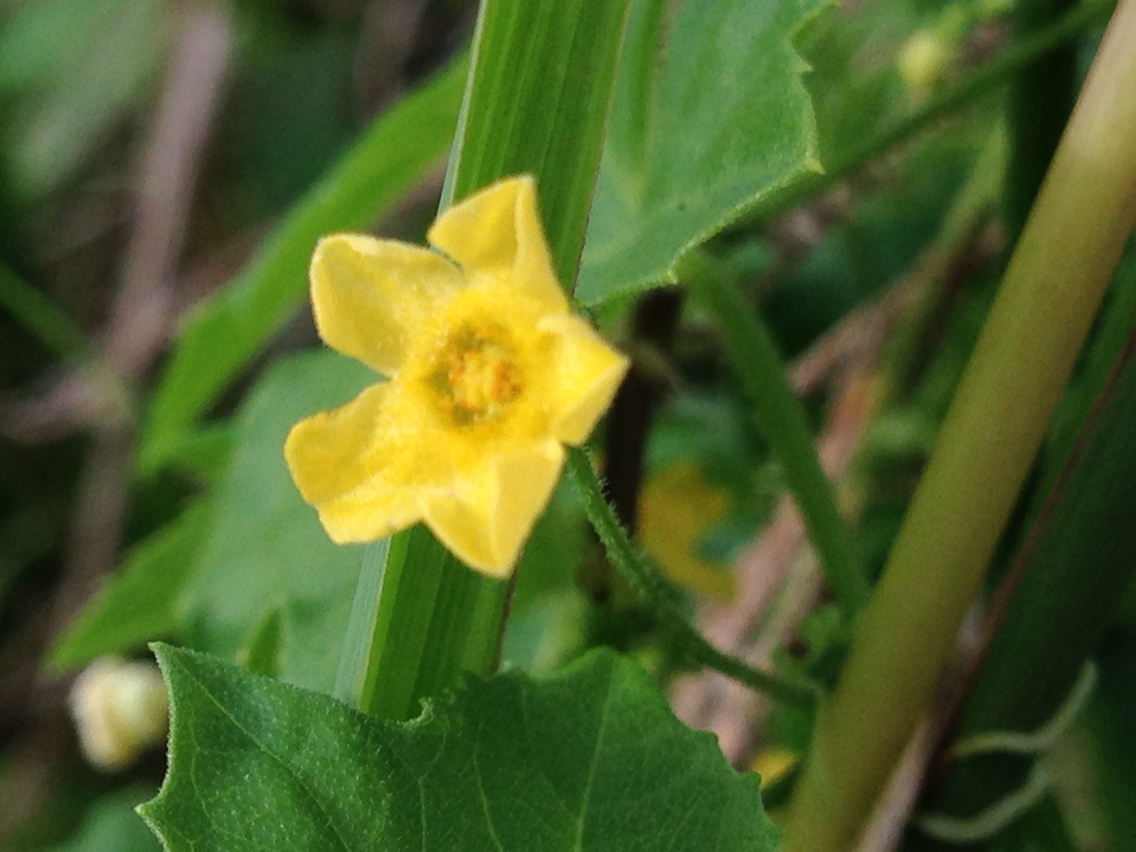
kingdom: Plantae
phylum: Tracheophyta
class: Magnoliopsida
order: Cucurbitales
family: Cucurbitaceae
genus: Melothria
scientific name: Melothria pendula
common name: Creeping-cucumber
